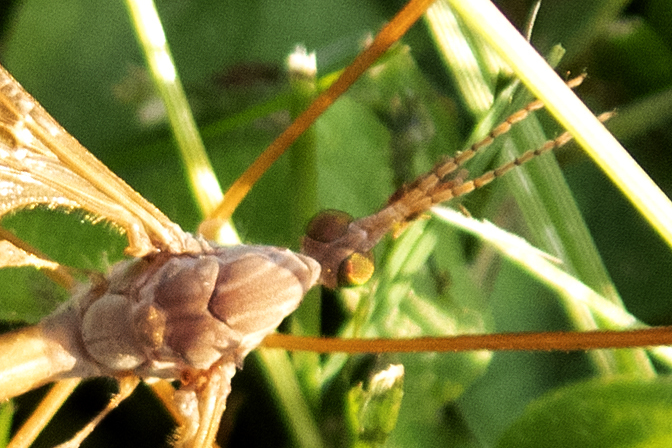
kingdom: Animalia
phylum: Arthropoda
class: Insecta
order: Diptera
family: Tipulidae
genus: Tipula
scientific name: Tipula ultima
